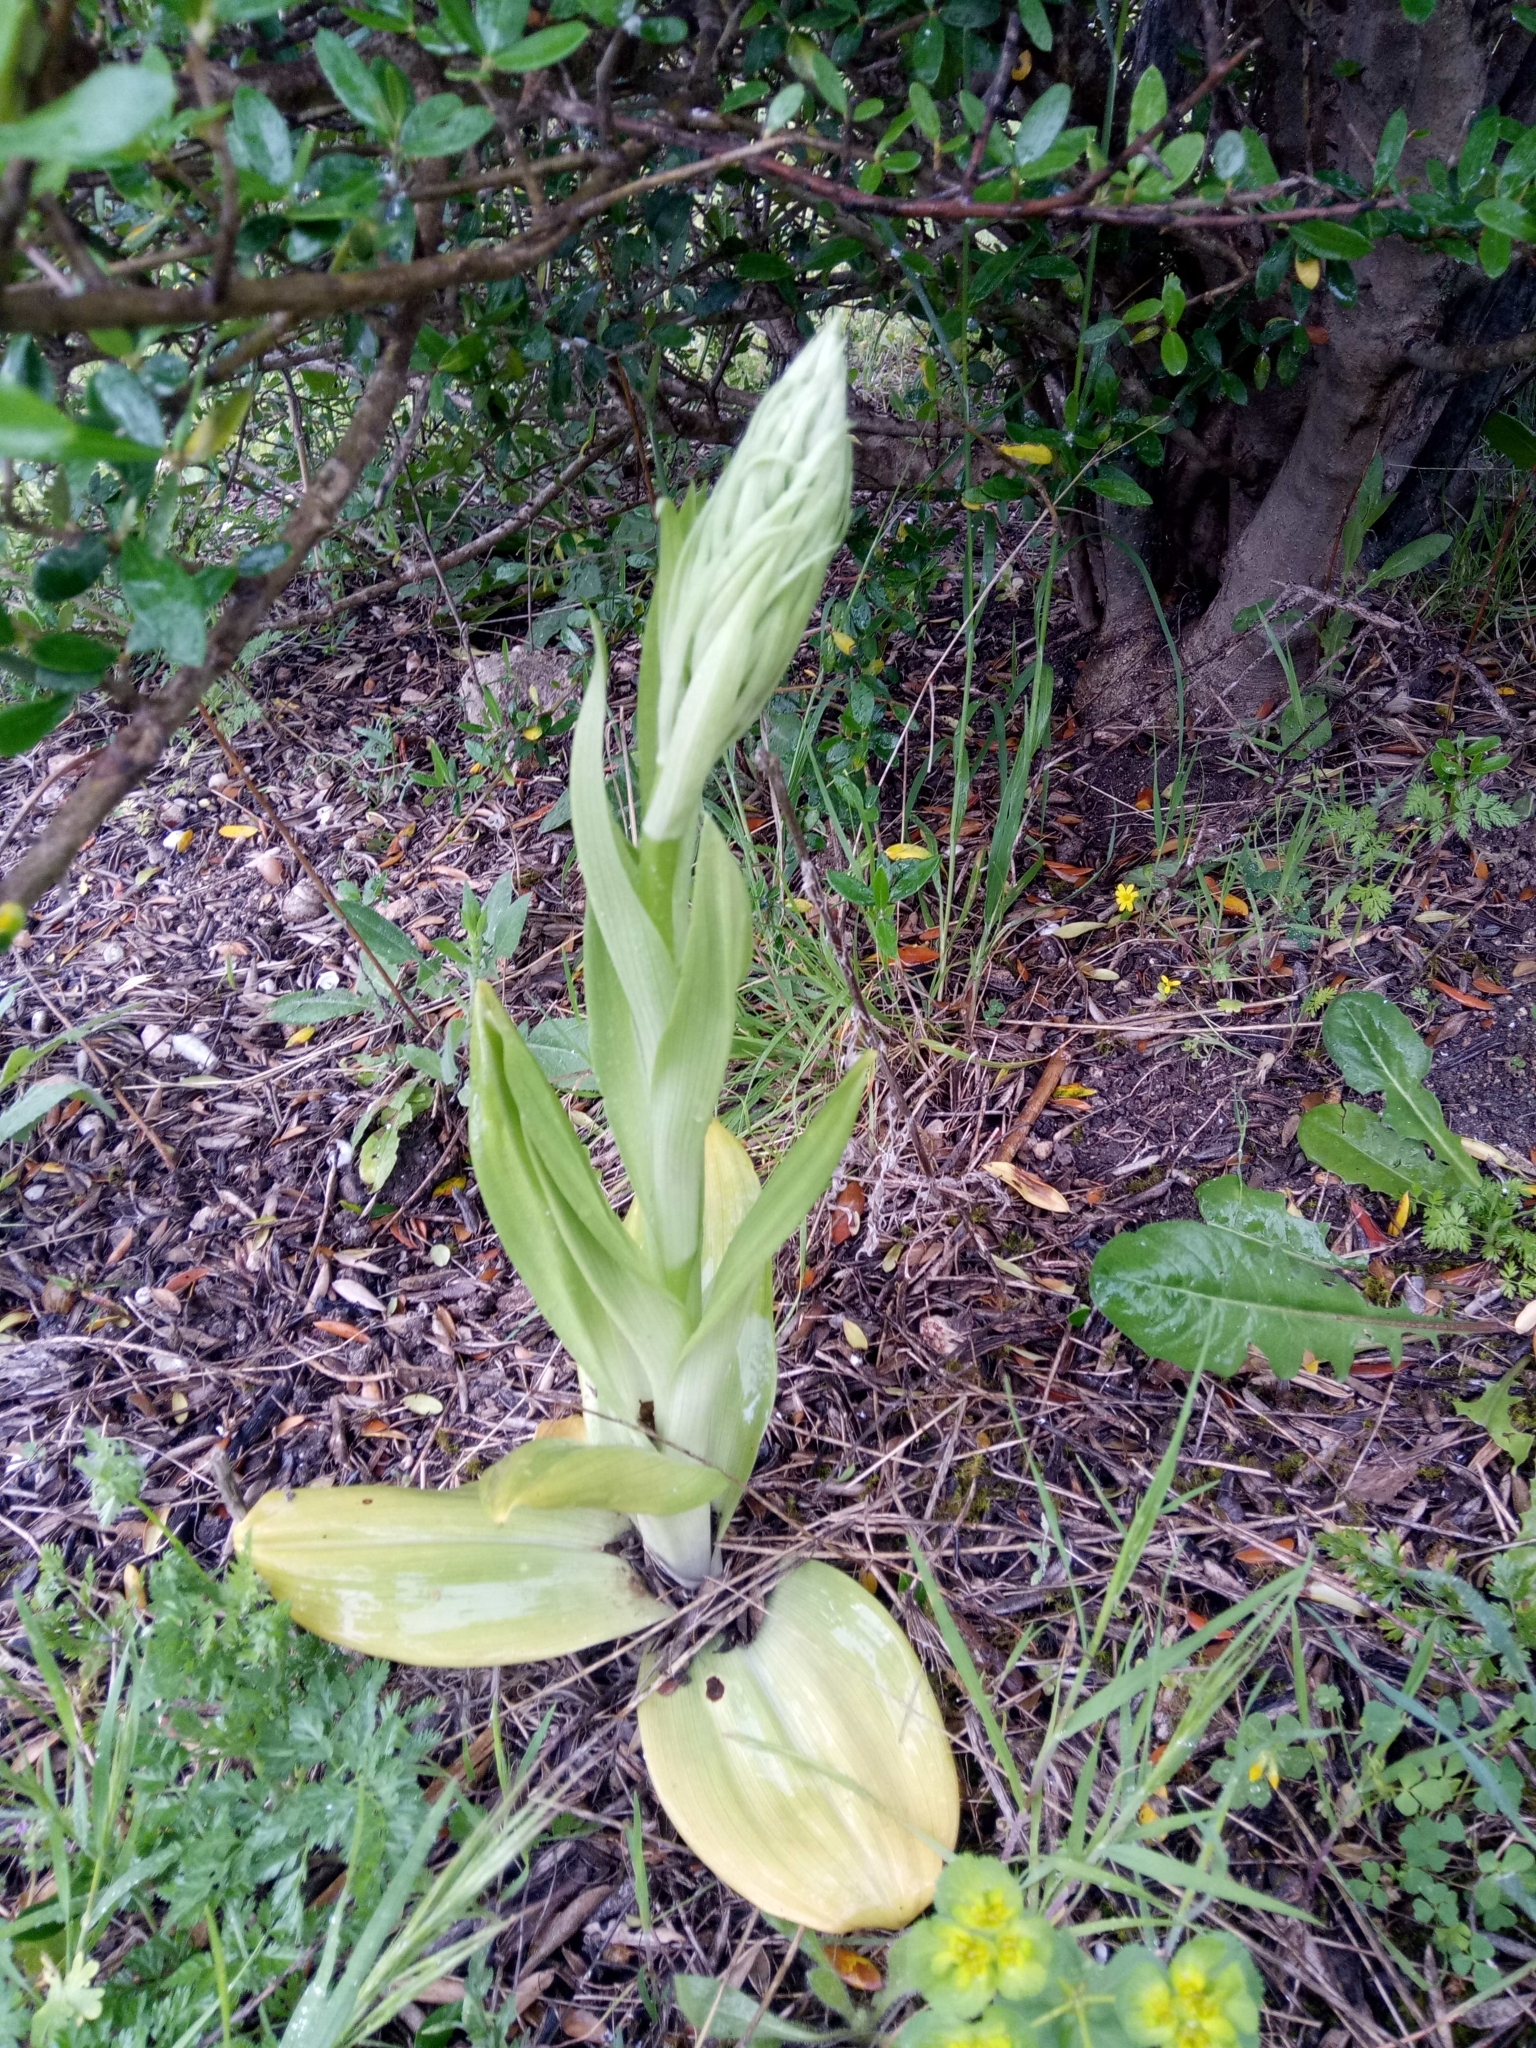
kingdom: Plantae
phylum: Tracheophyta
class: Liliopsida
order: Asparagales
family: Orchidaceae
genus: Himantoglossum
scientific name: Himantoglossum hircinum
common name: Lizard orchid
